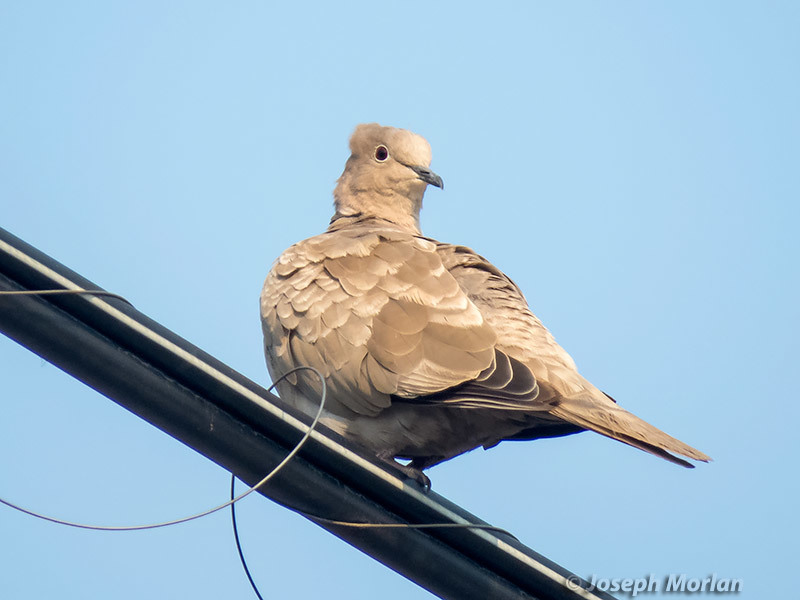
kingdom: Animalia
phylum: Chordata
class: Aves
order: Columbiformes
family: Columbidae
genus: Streptopelia
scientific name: Streptopelia decaocto
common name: Eurasian collared dove
